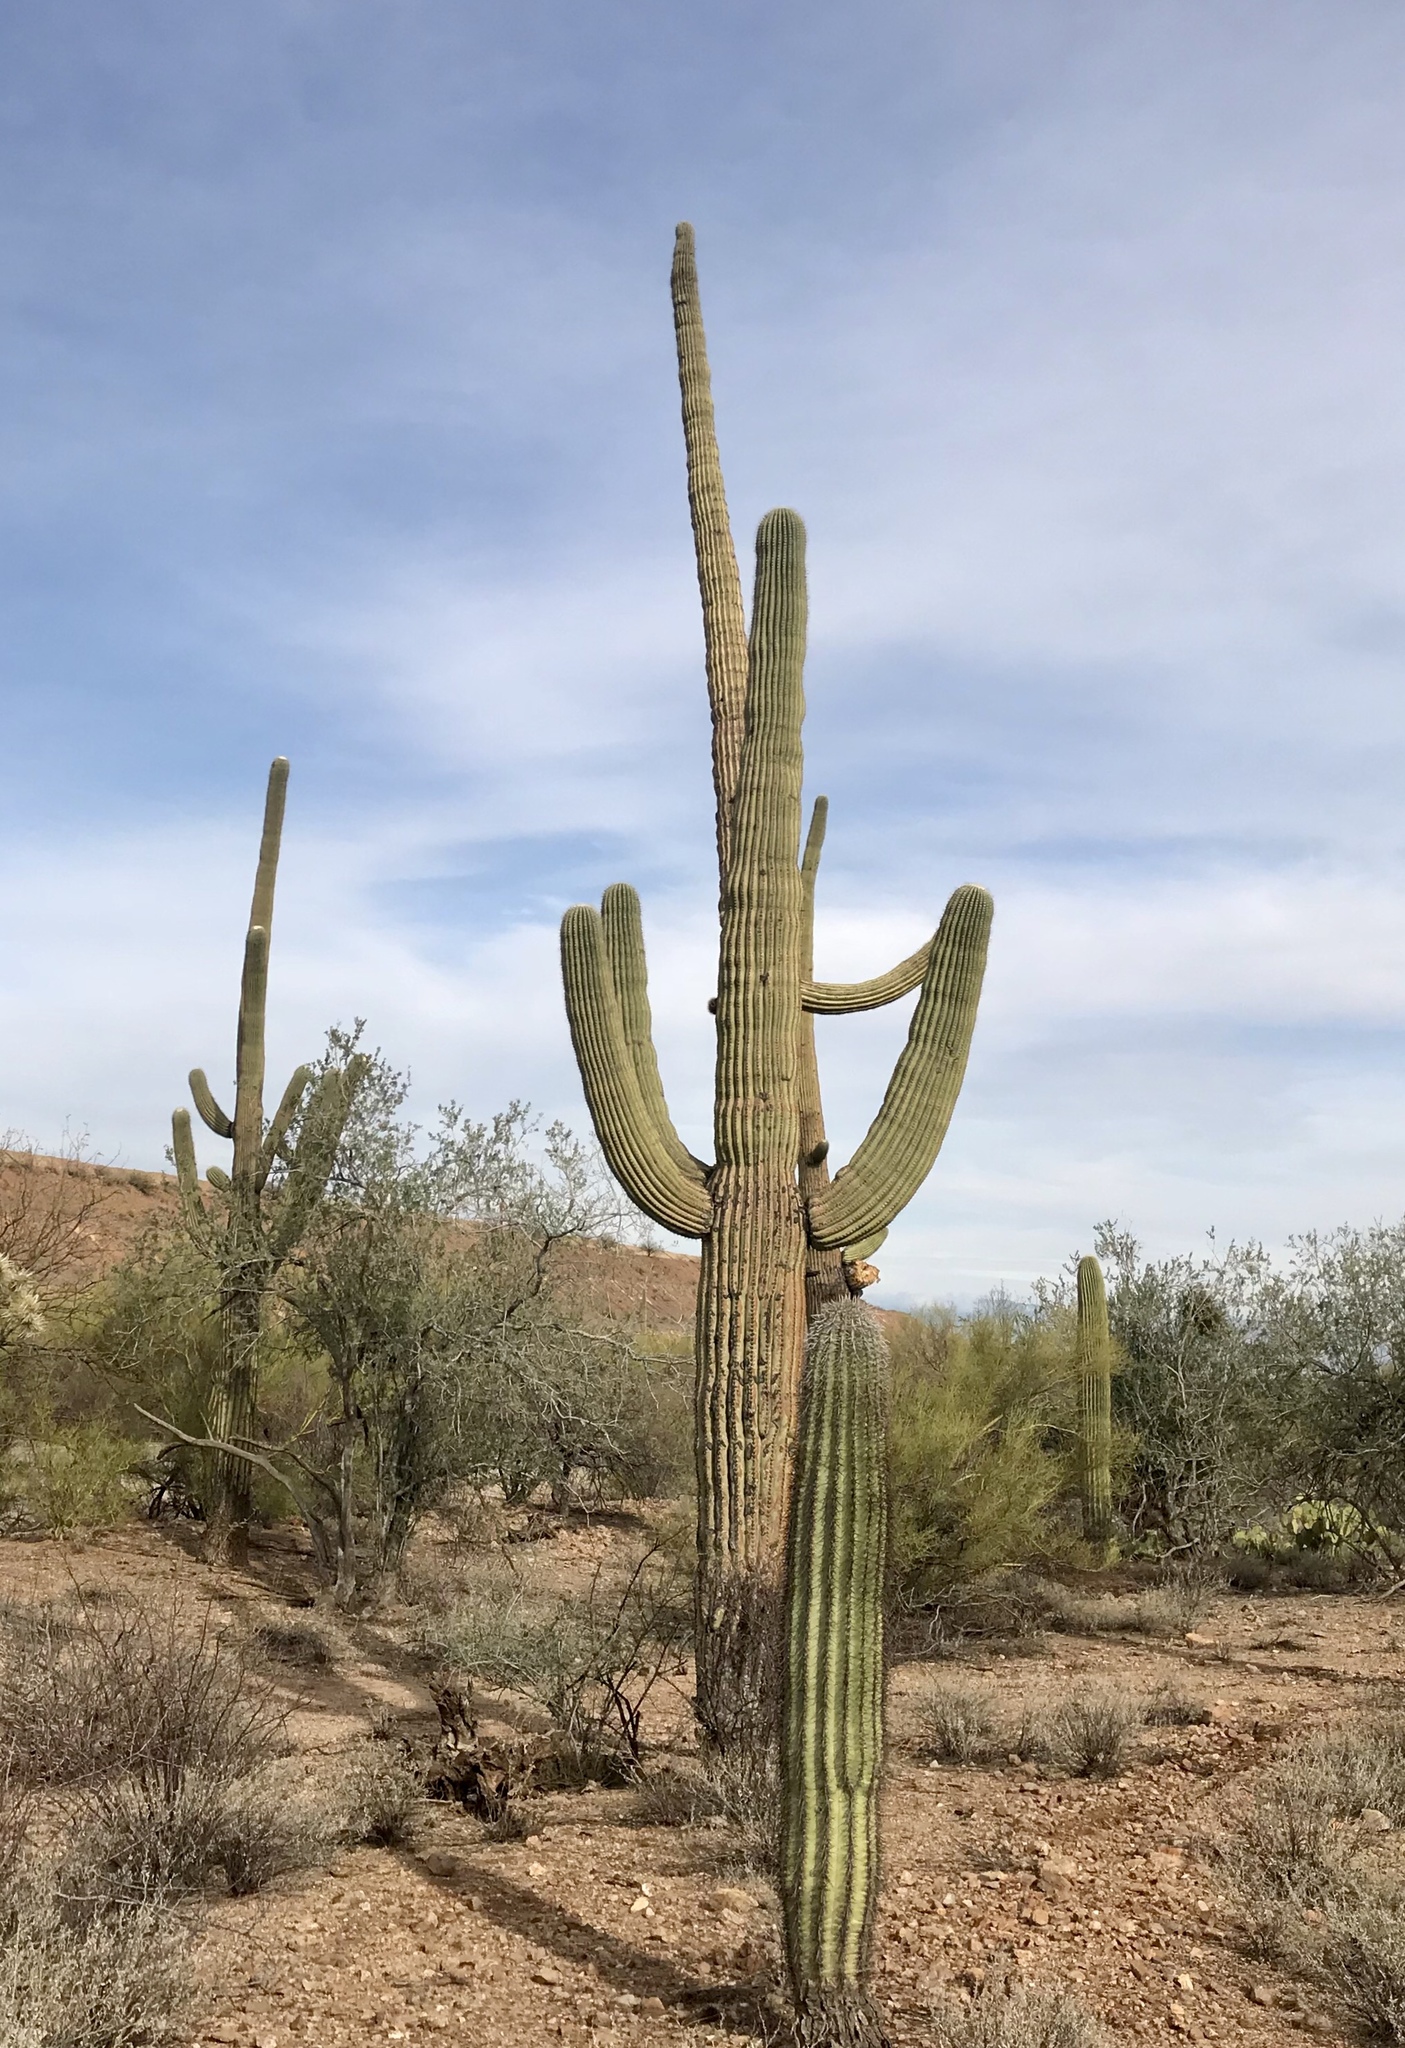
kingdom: Plantae
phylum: Tracheophyta
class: Magnoliopsida
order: Caryophyllales
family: Cactaceae
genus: Carnegiea
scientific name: Carnegiea gigantea
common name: Saguaro
